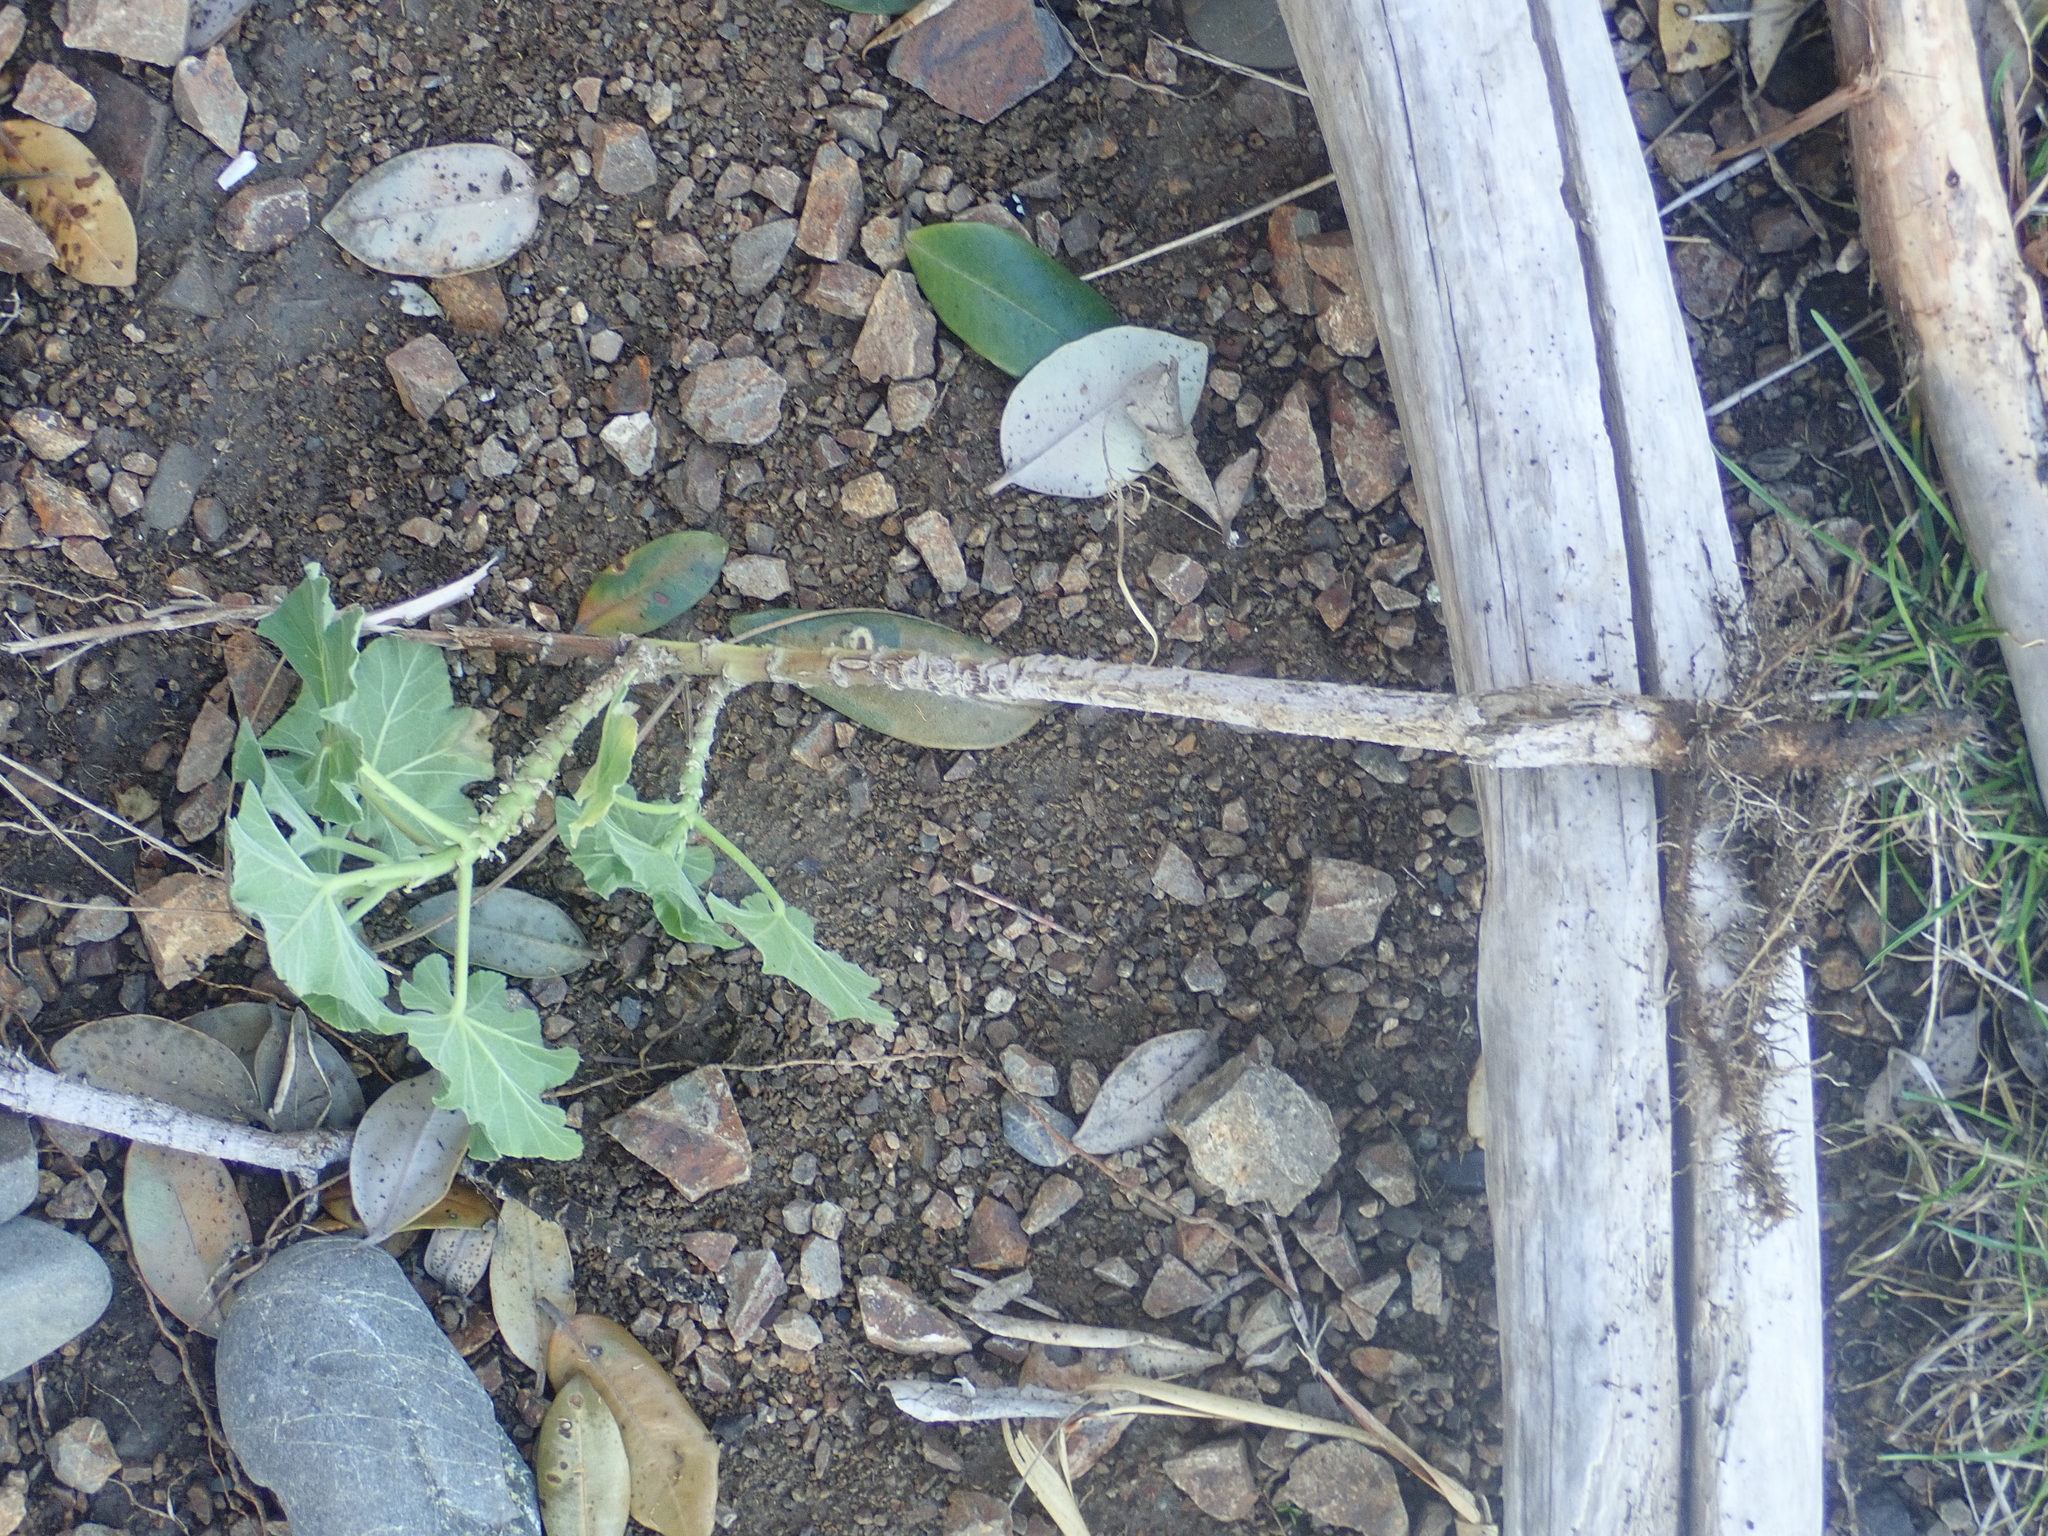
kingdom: Plantae
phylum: Tracheophyta
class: Magnoliopsida
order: Malvales
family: Malvaceae
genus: Malva
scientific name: Malva arborea
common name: Tree mallow
